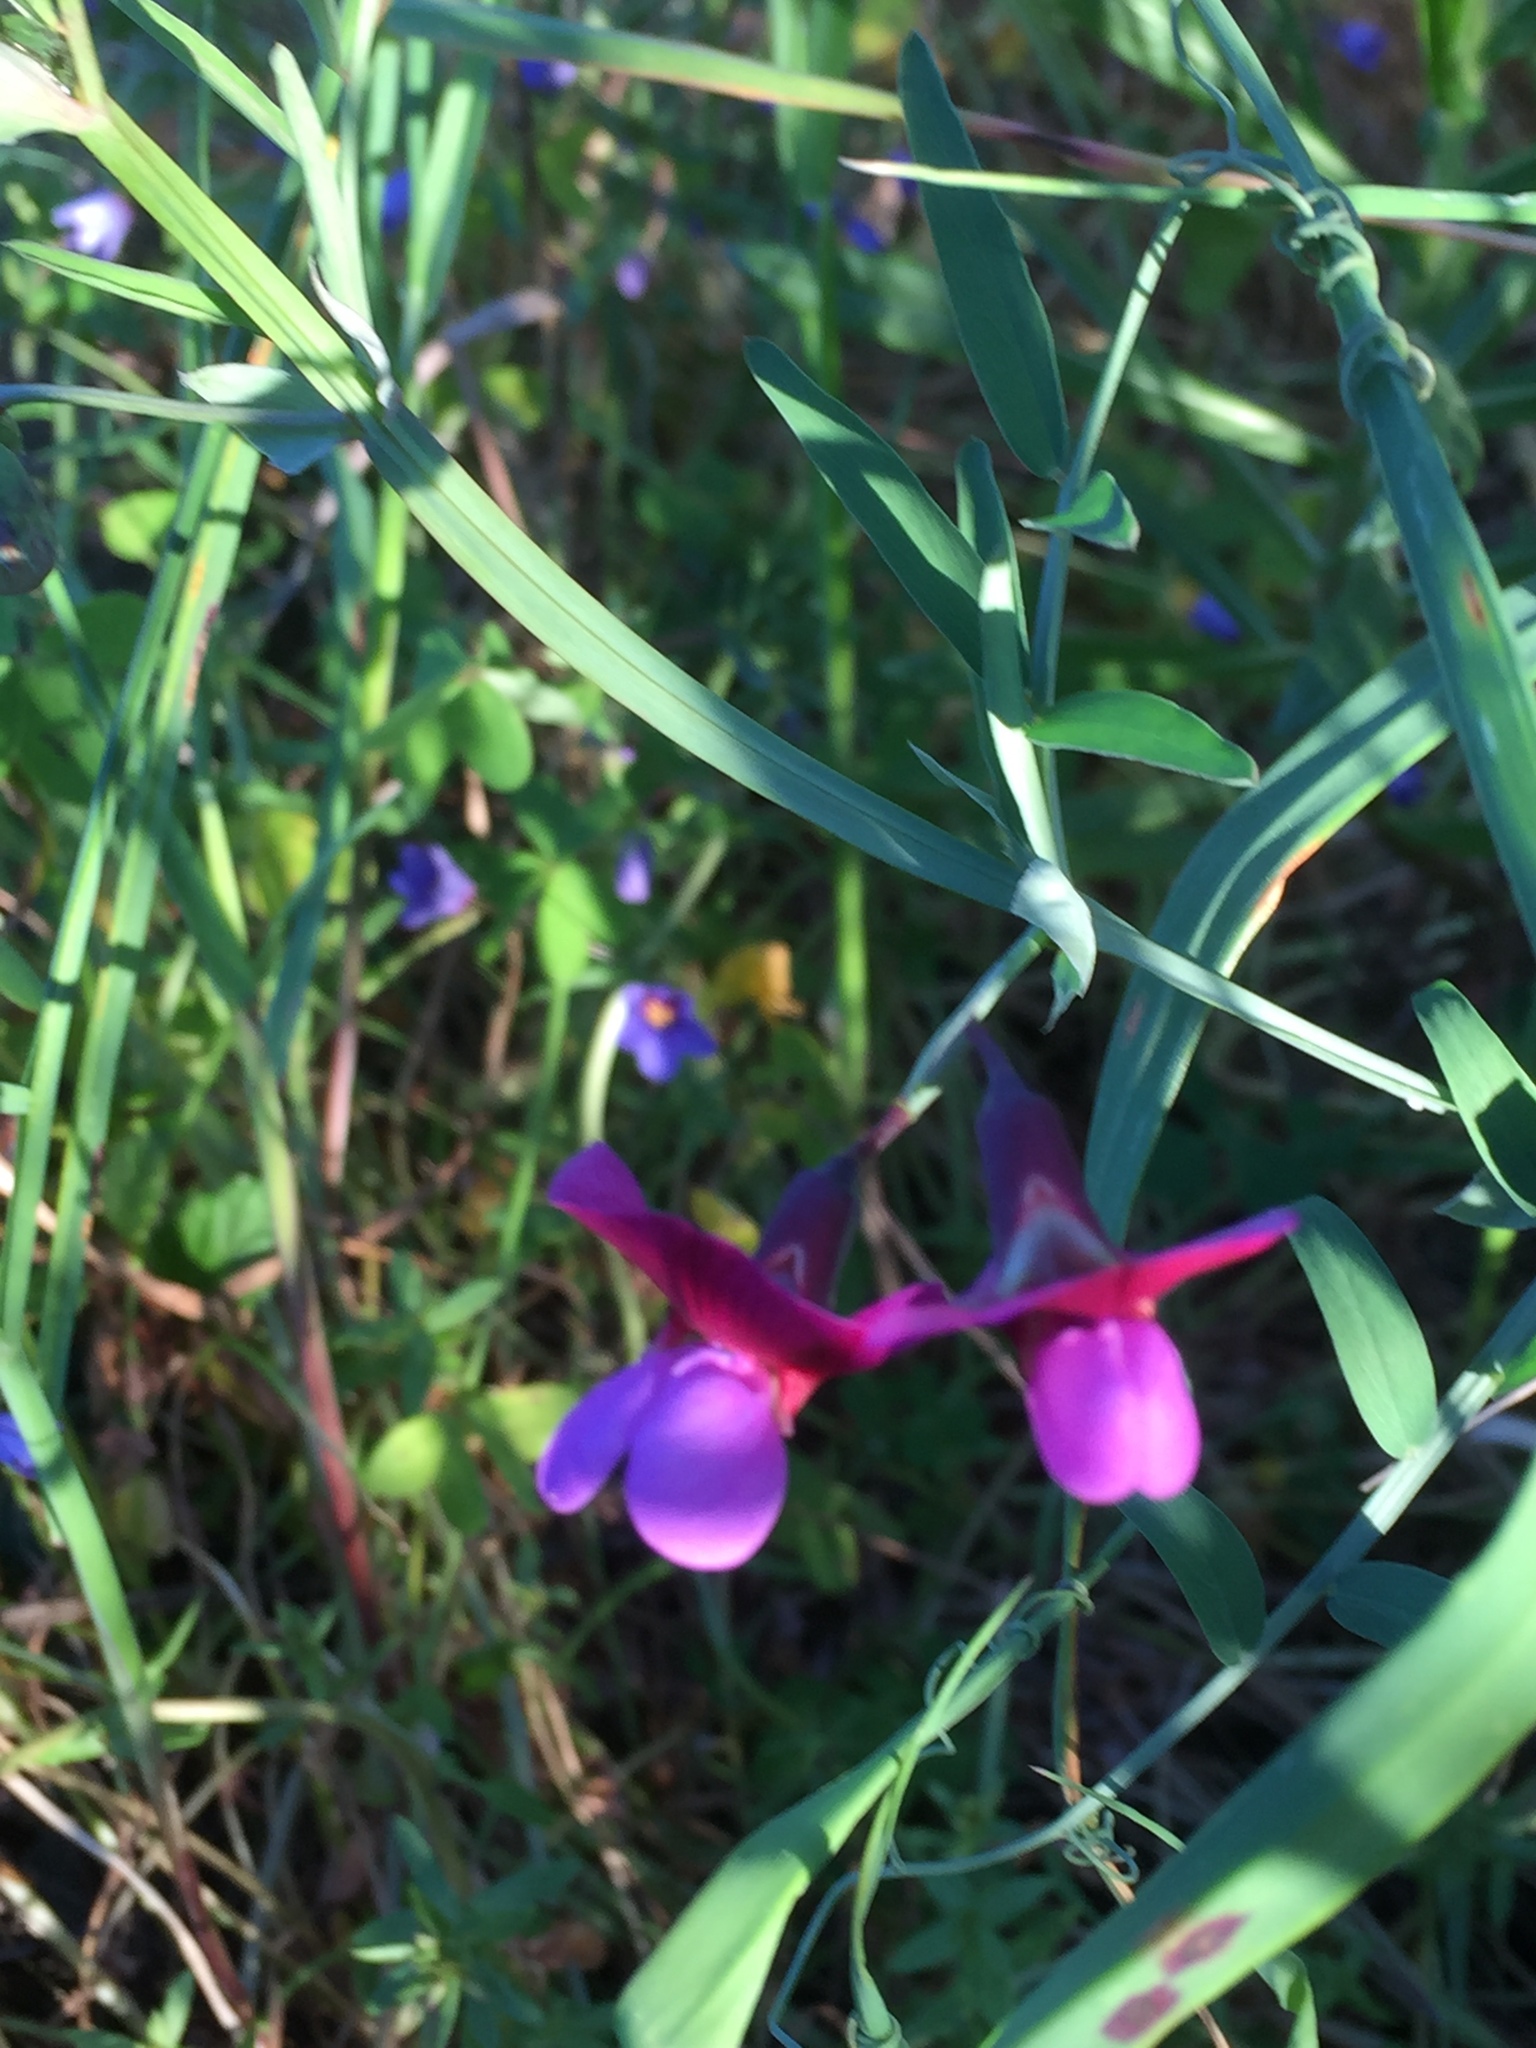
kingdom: Plantae
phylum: Tracheophyta
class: Magnoliopsida
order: Fabales
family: Fabaceae
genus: Lathyrus
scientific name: Lathyrus clymenum
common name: Spanish vetchling
